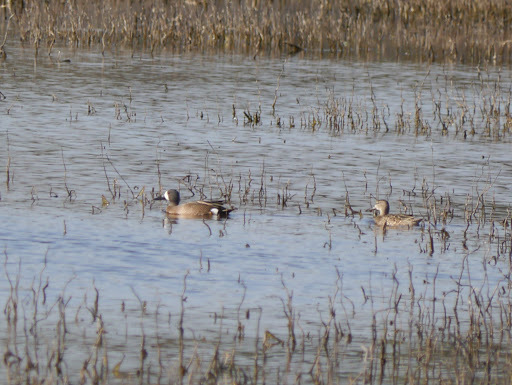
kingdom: Animalia
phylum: Chordata
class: Aves
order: Anseriformes
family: Anatidae
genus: Spatula
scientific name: Spatula discors
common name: Blue-winged teal
